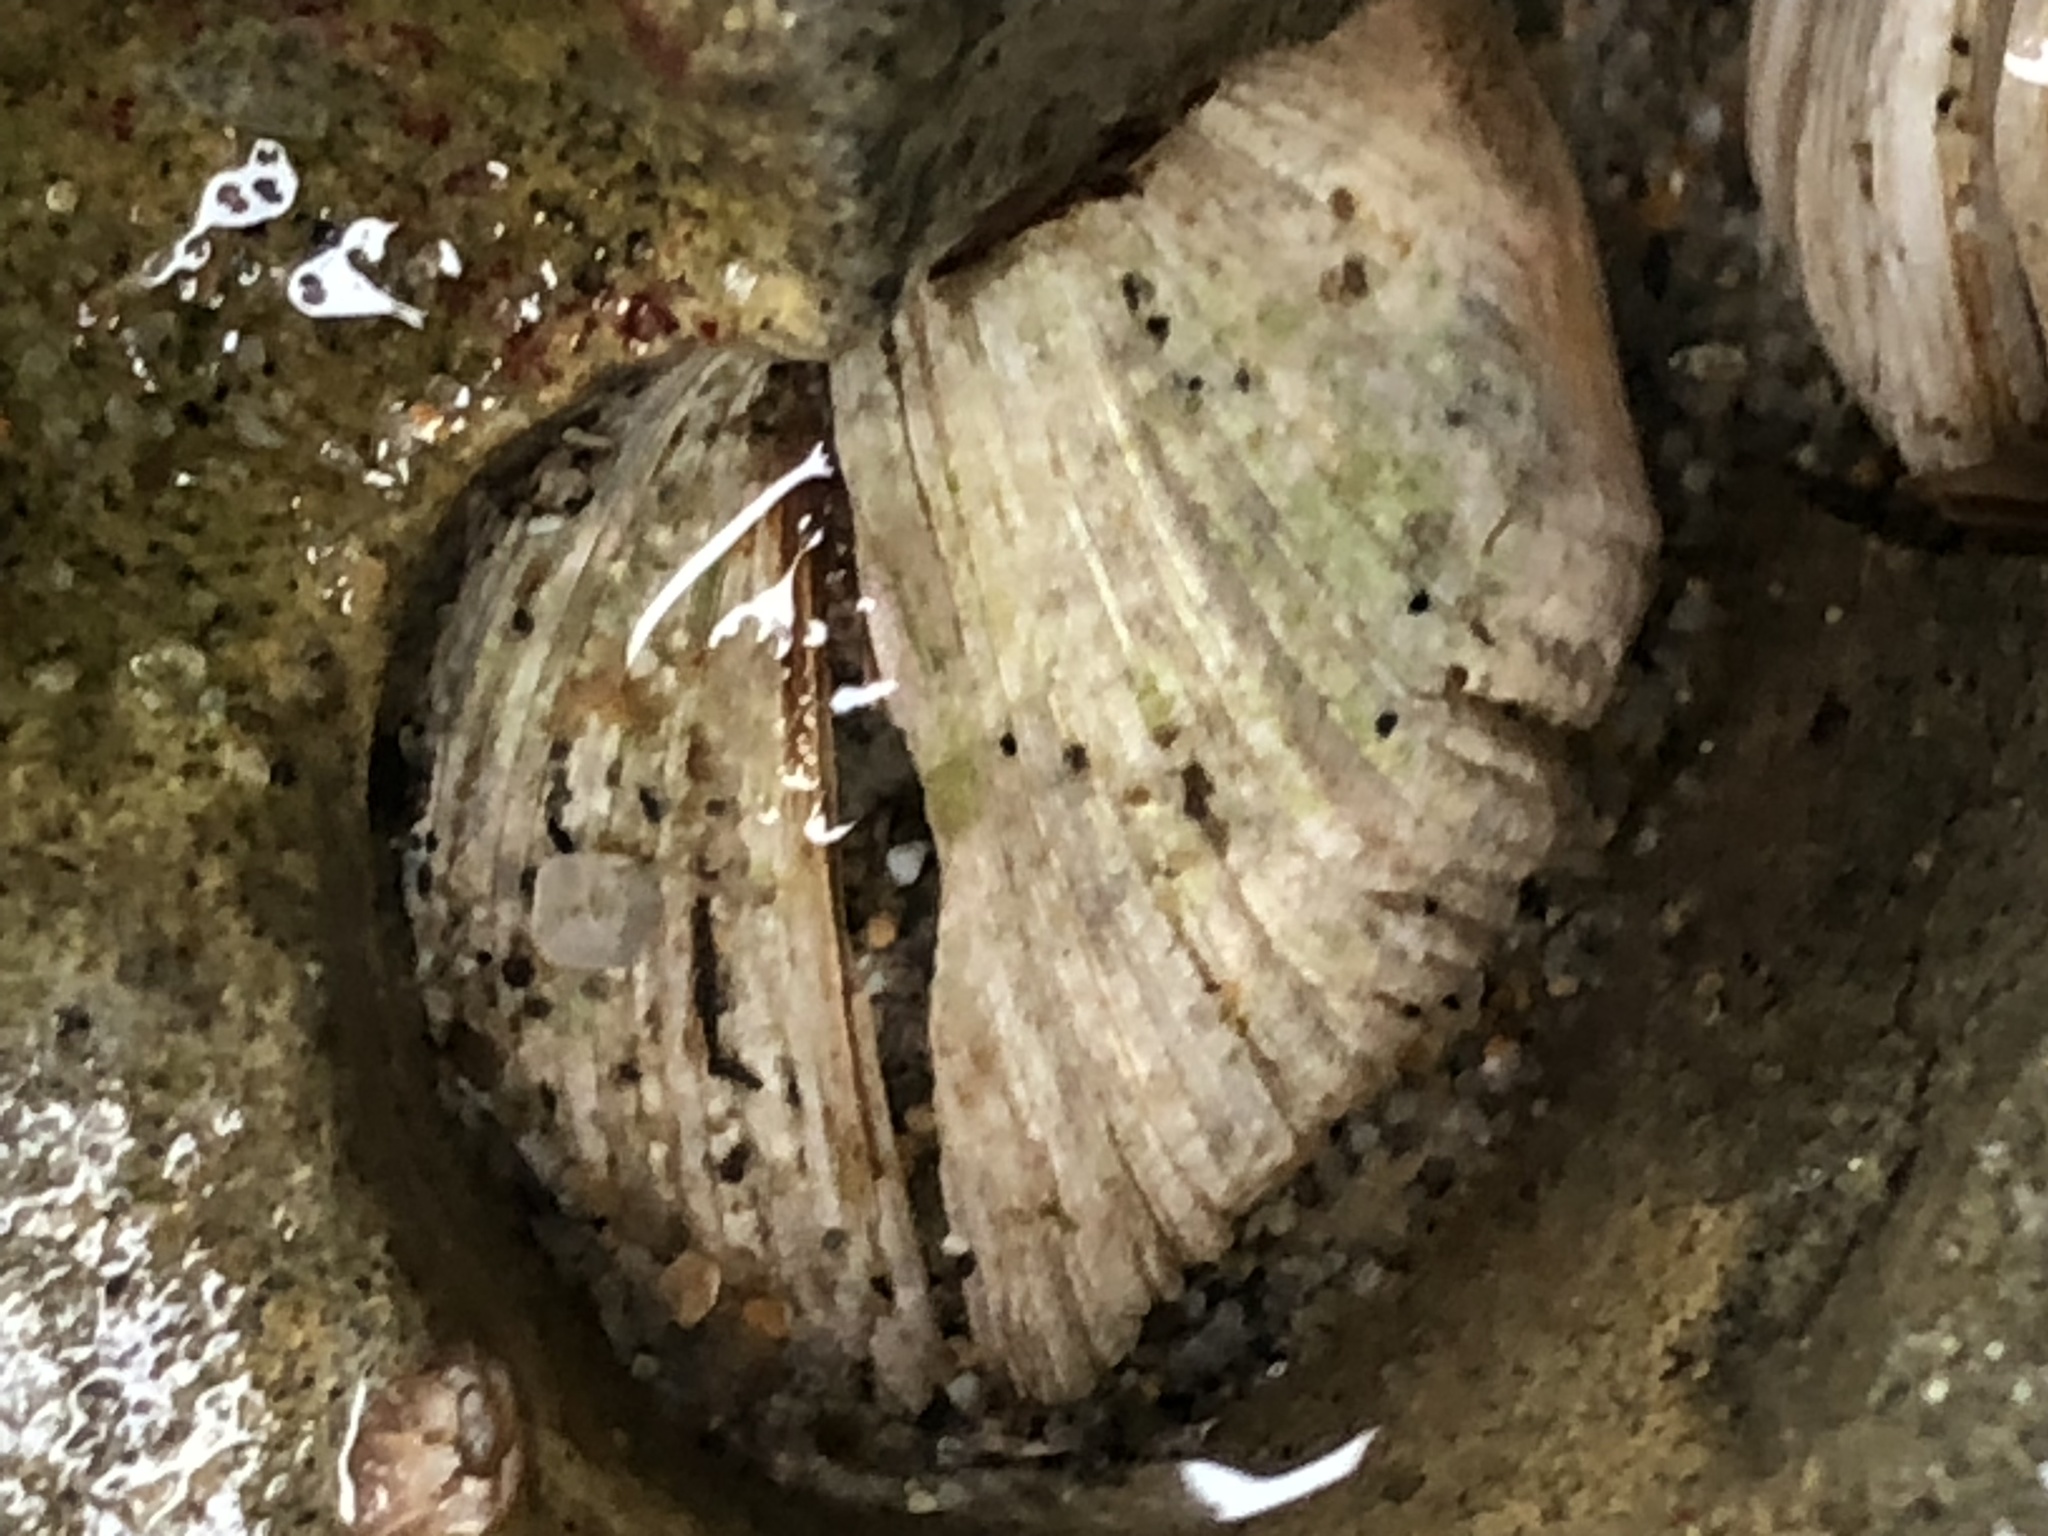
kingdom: Animalia
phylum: Mollusca
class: Bivalvia
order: Venerida
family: Veneridae
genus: Petricola
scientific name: Petricola carditoides
